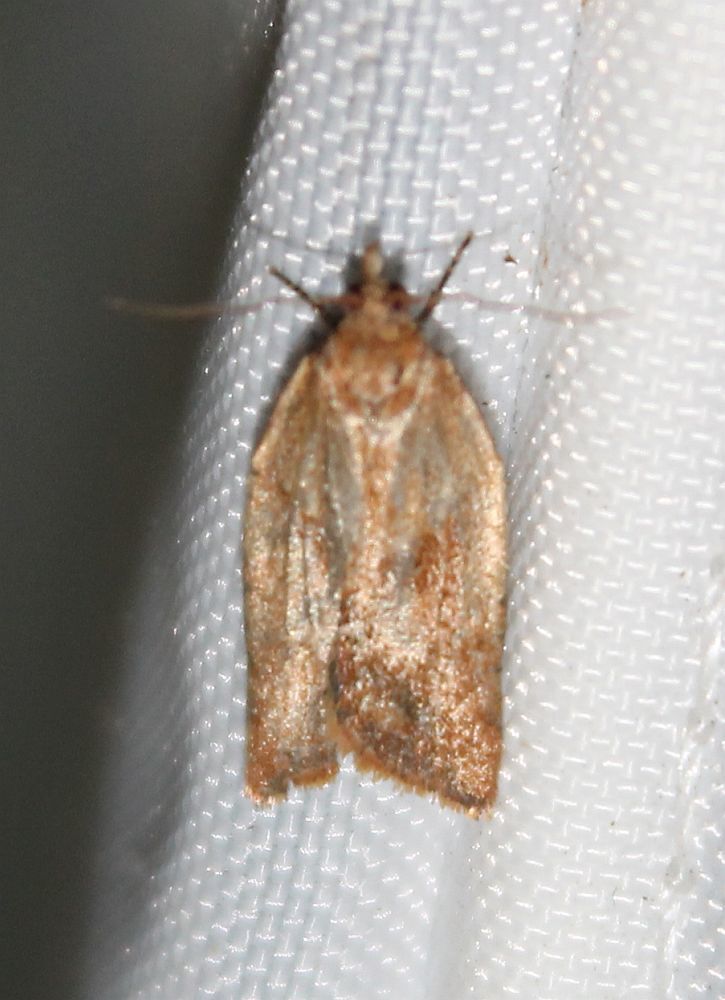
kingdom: Animalia
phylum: Arthropoda
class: Insecta
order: Lepidoptera
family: Tortricidae
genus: Epiphyas
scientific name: Epiphyas postvittana
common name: Light brown apple moth
